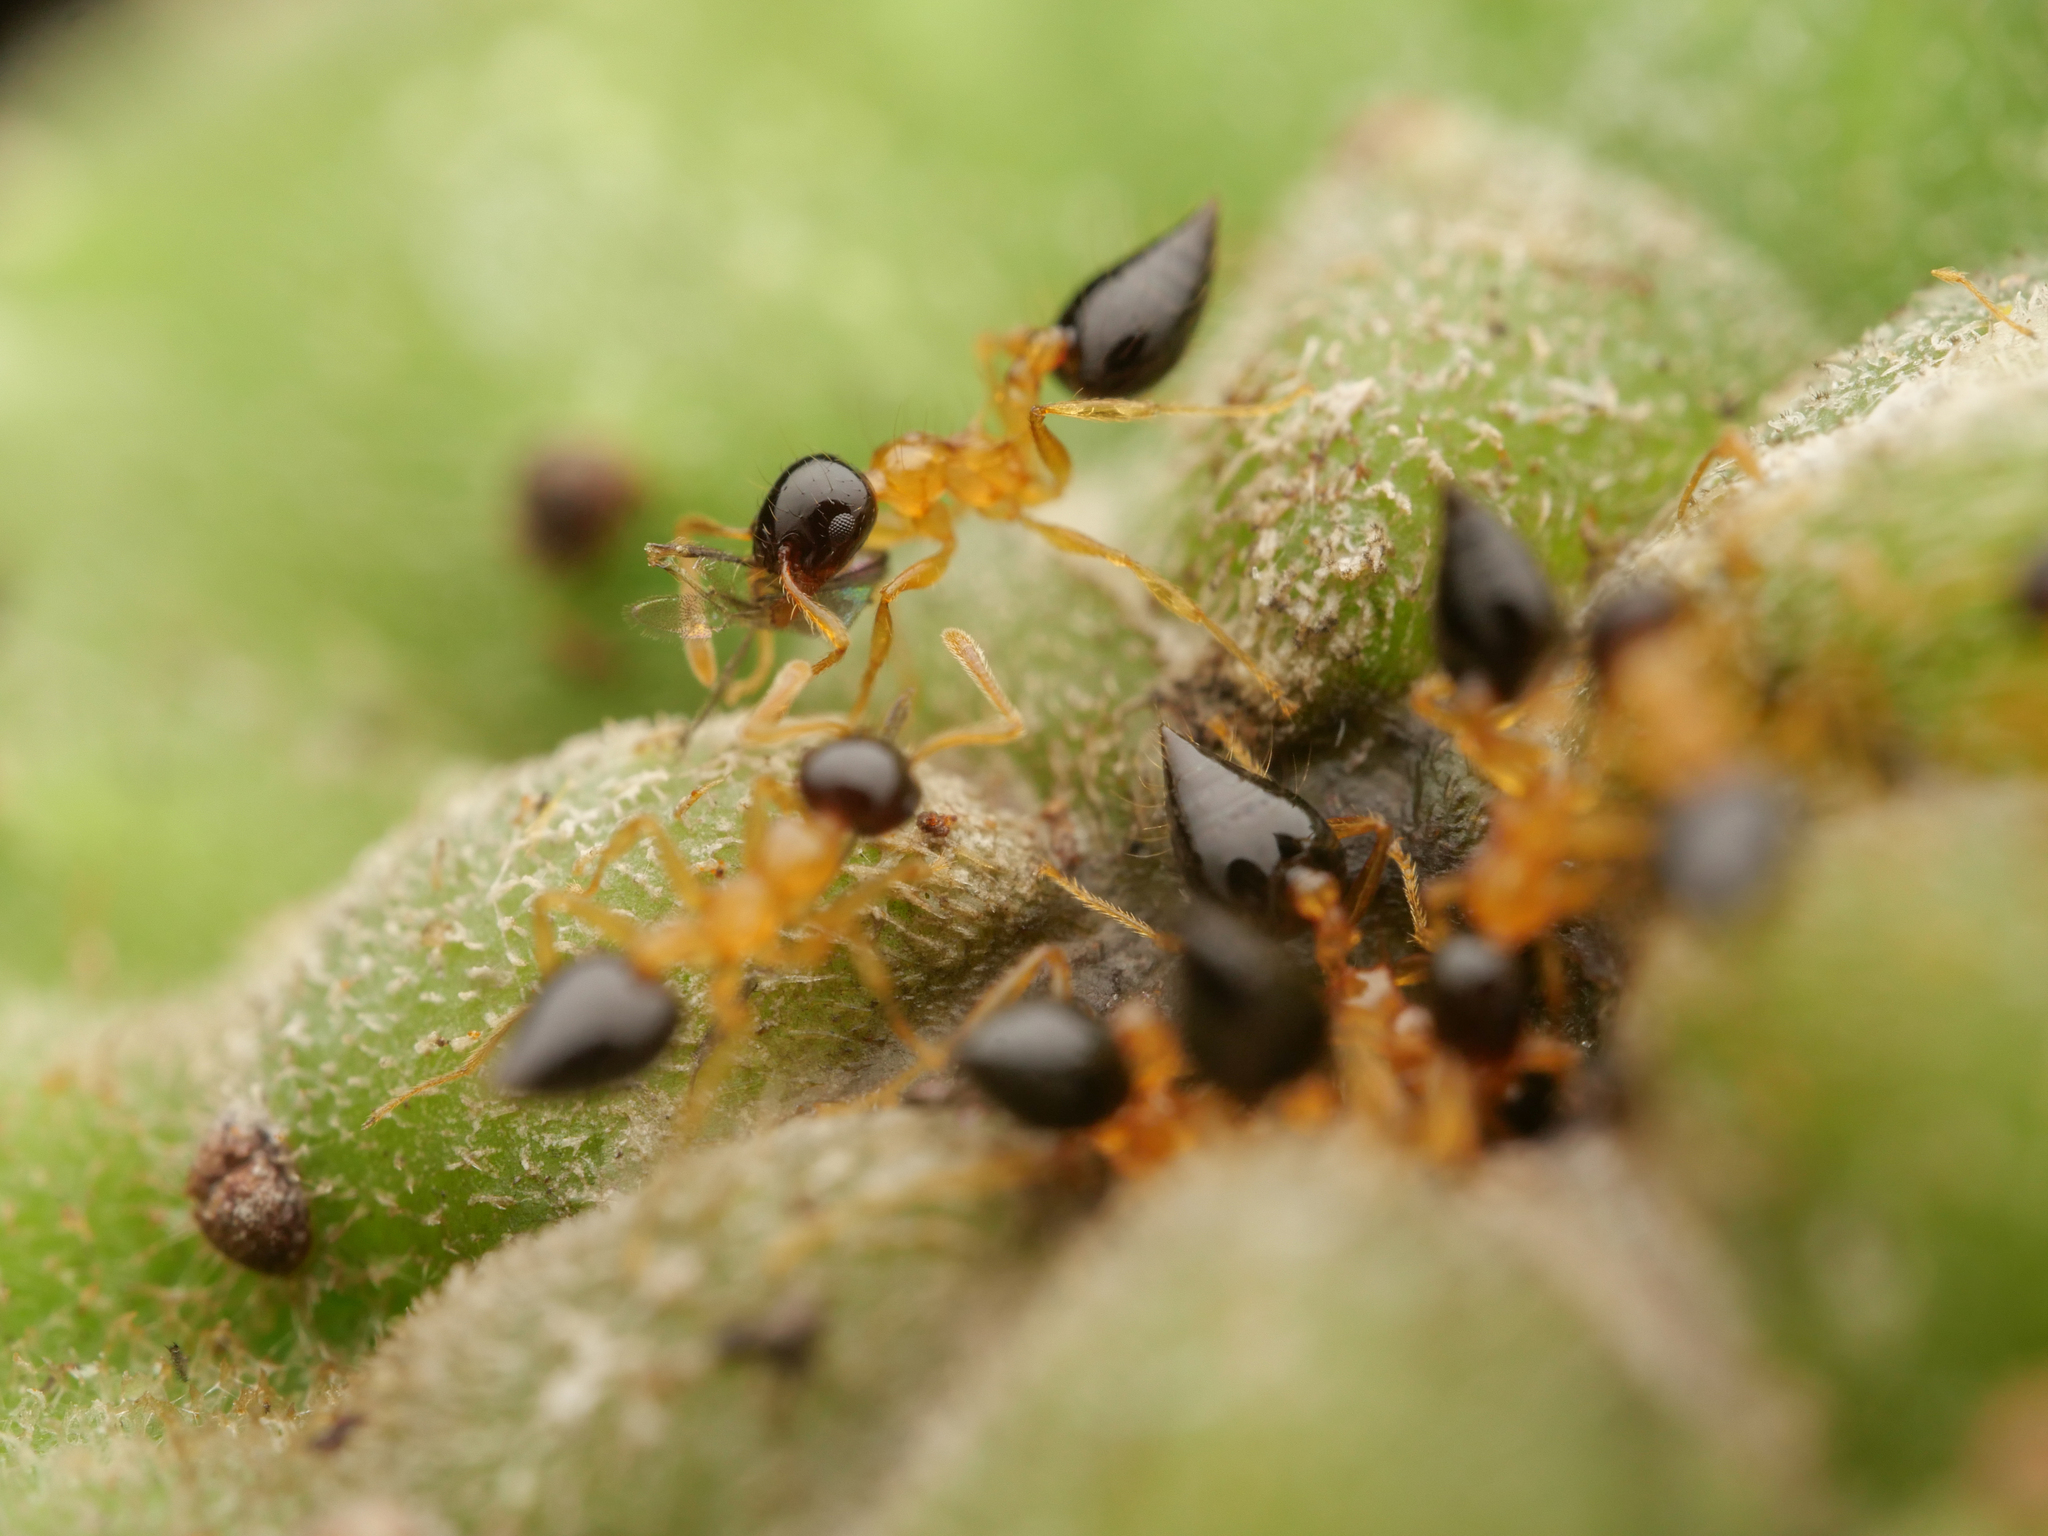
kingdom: Animalia
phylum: Arthropoda
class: Insecta
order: Hymenoptera
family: Formicidae
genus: Crematogaster
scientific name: Crematogaster emeryi
